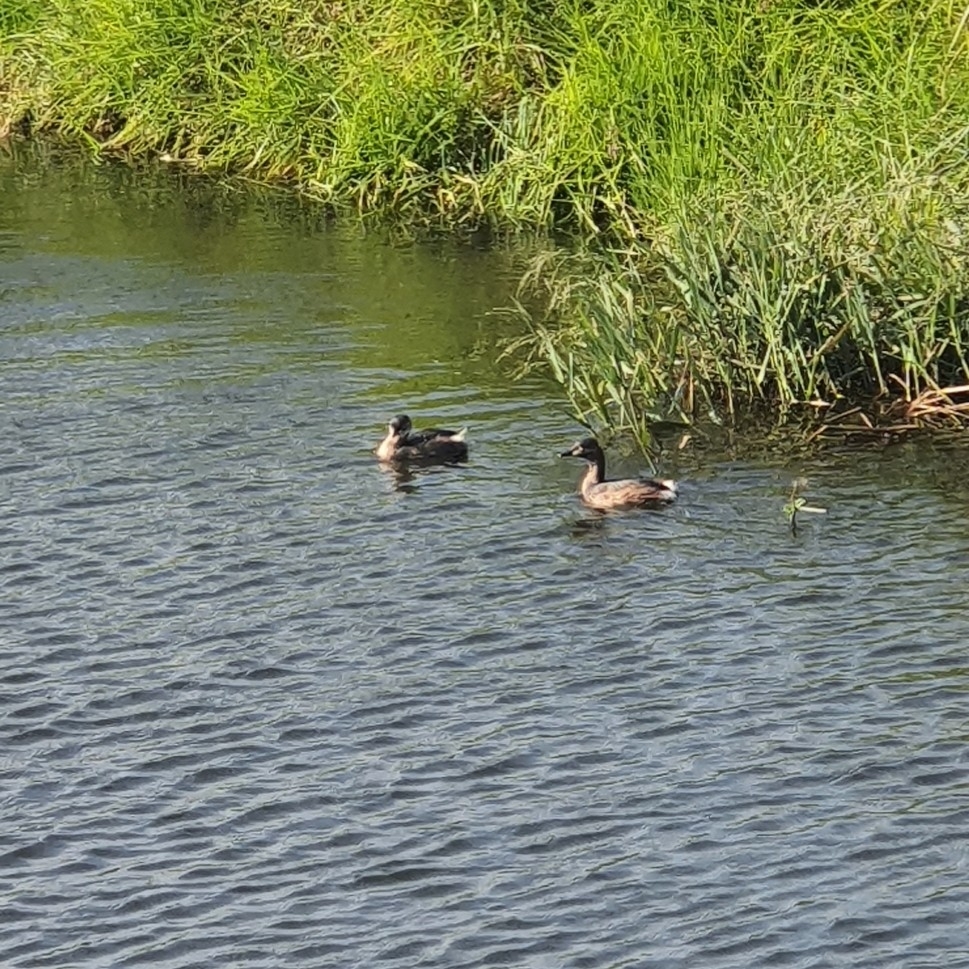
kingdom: Animalia
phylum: Chordata
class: Aves
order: Podicipediformes
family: Podicipedidae
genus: Tachybaptus
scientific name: Tachybaptus novaehollandiae
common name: Australasian grebe
